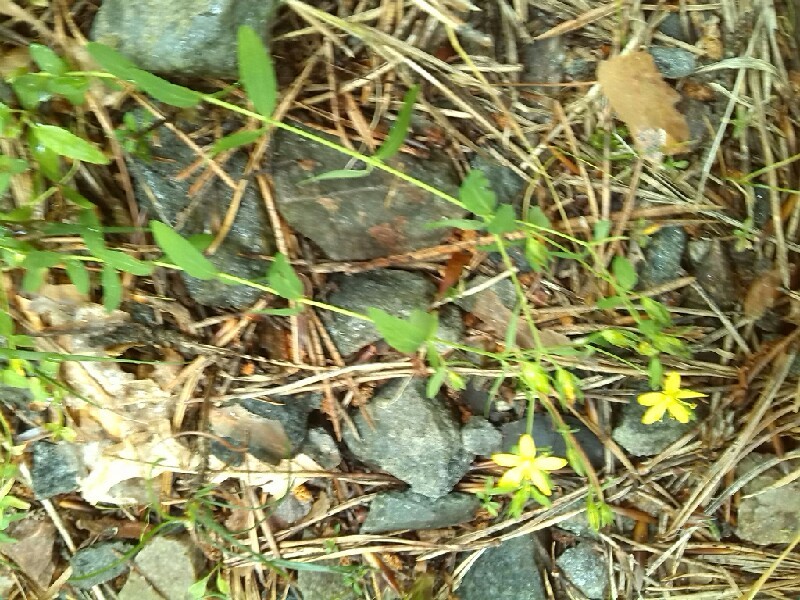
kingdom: Plantae
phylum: Tracheophyta
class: Magnoliopsida
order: Malpighiales
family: Hypericaceae
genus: Hypericum
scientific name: Hypericum humifusum
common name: Trailing st. john's-wort
